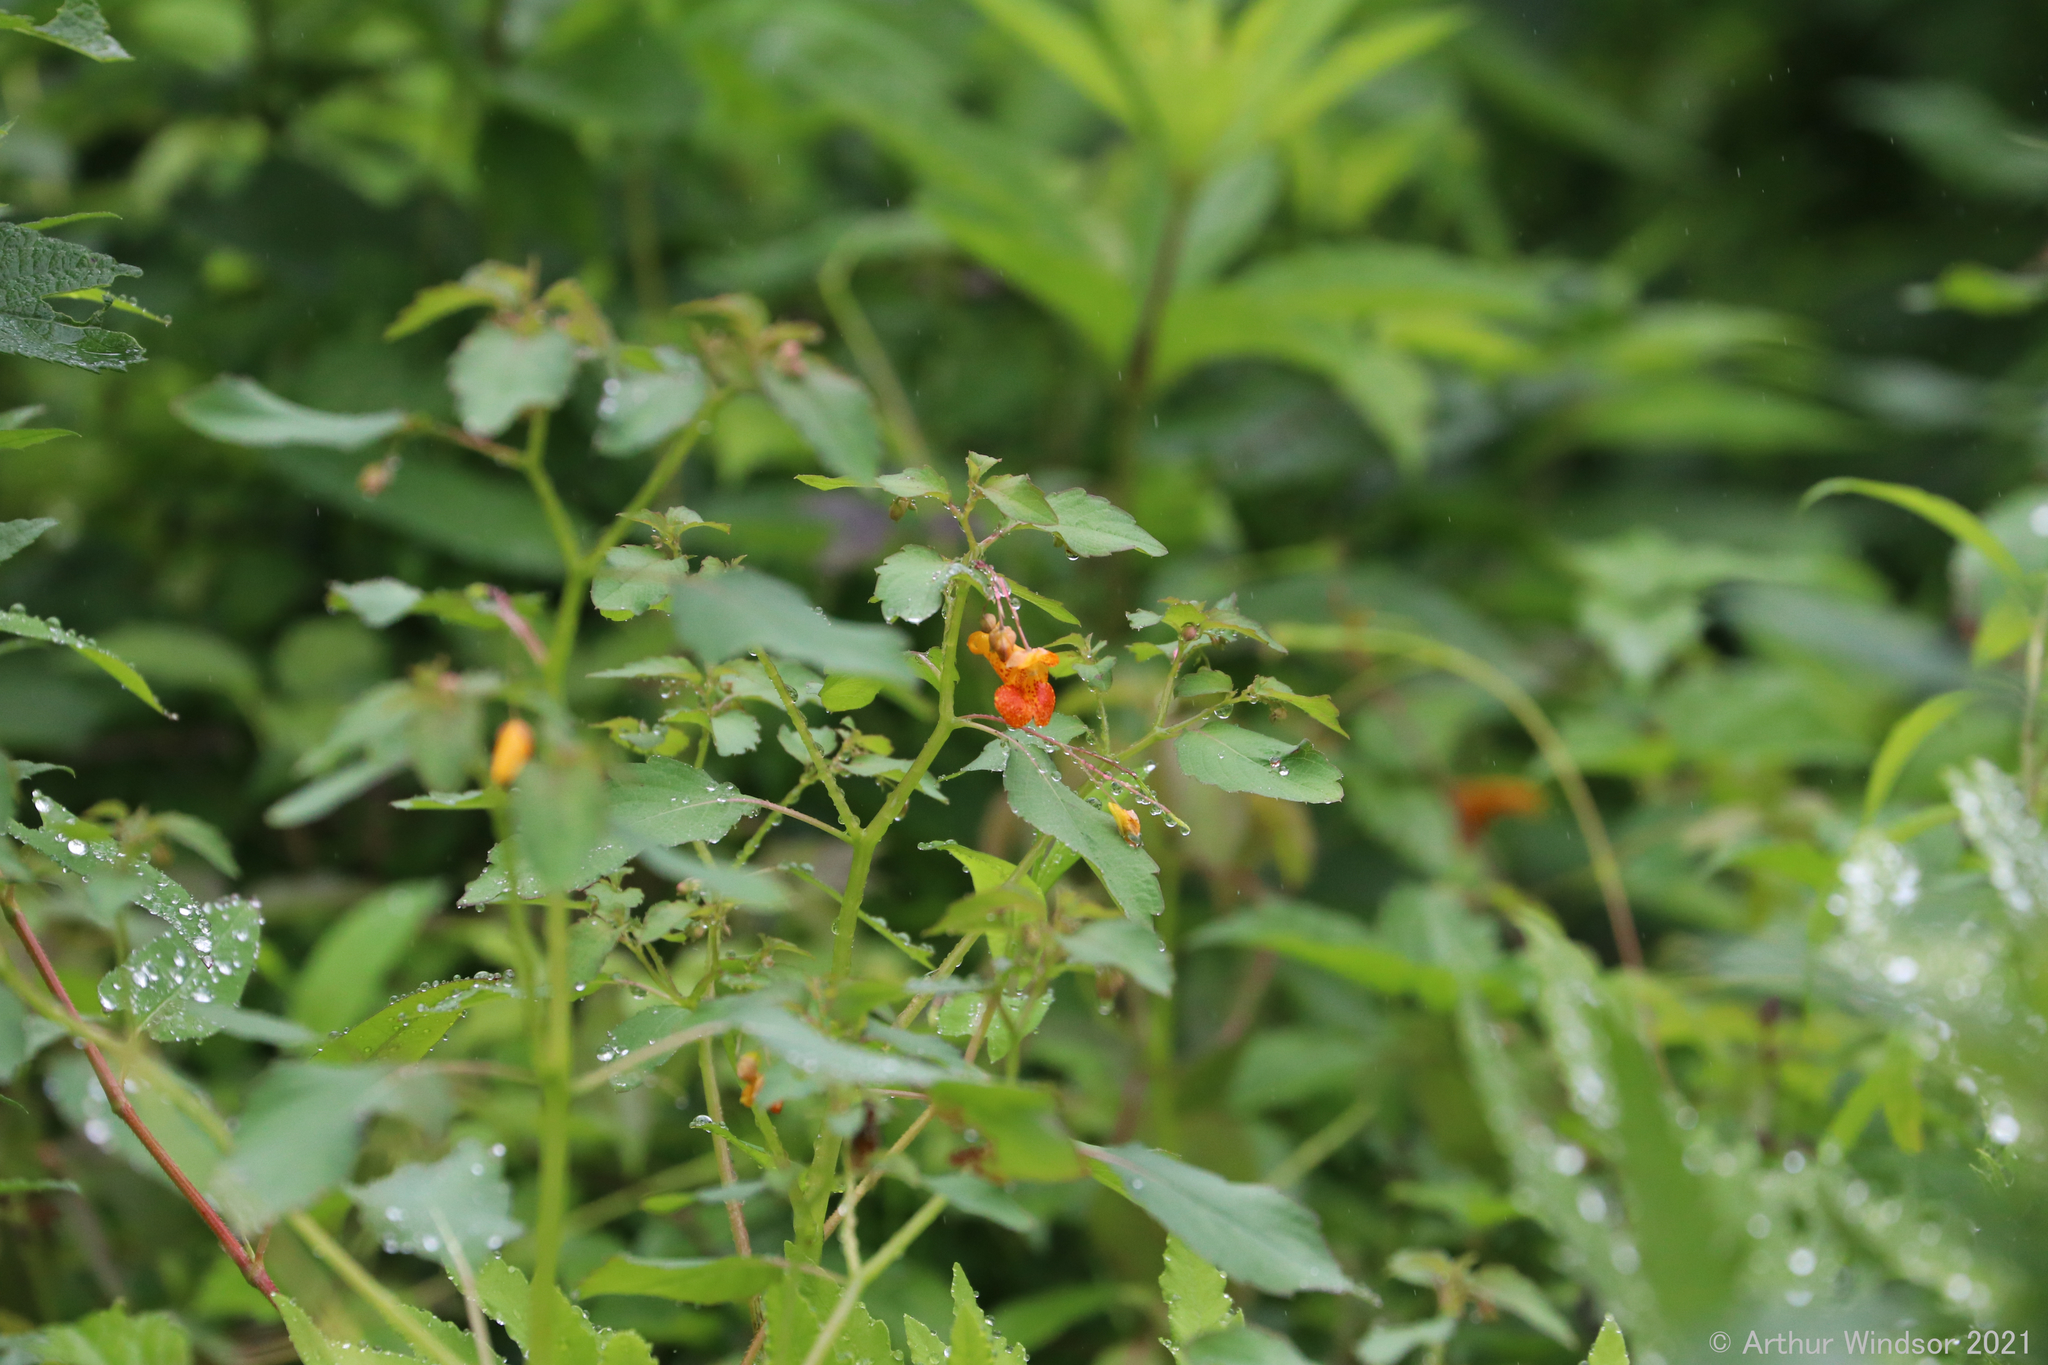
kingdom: Plantae
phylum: Tracheophyta
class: Magnoliopsida
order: Ericales
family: Balsaminaceae
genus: Impatiens
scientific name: Impatiens capensis
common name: Orange balsam
